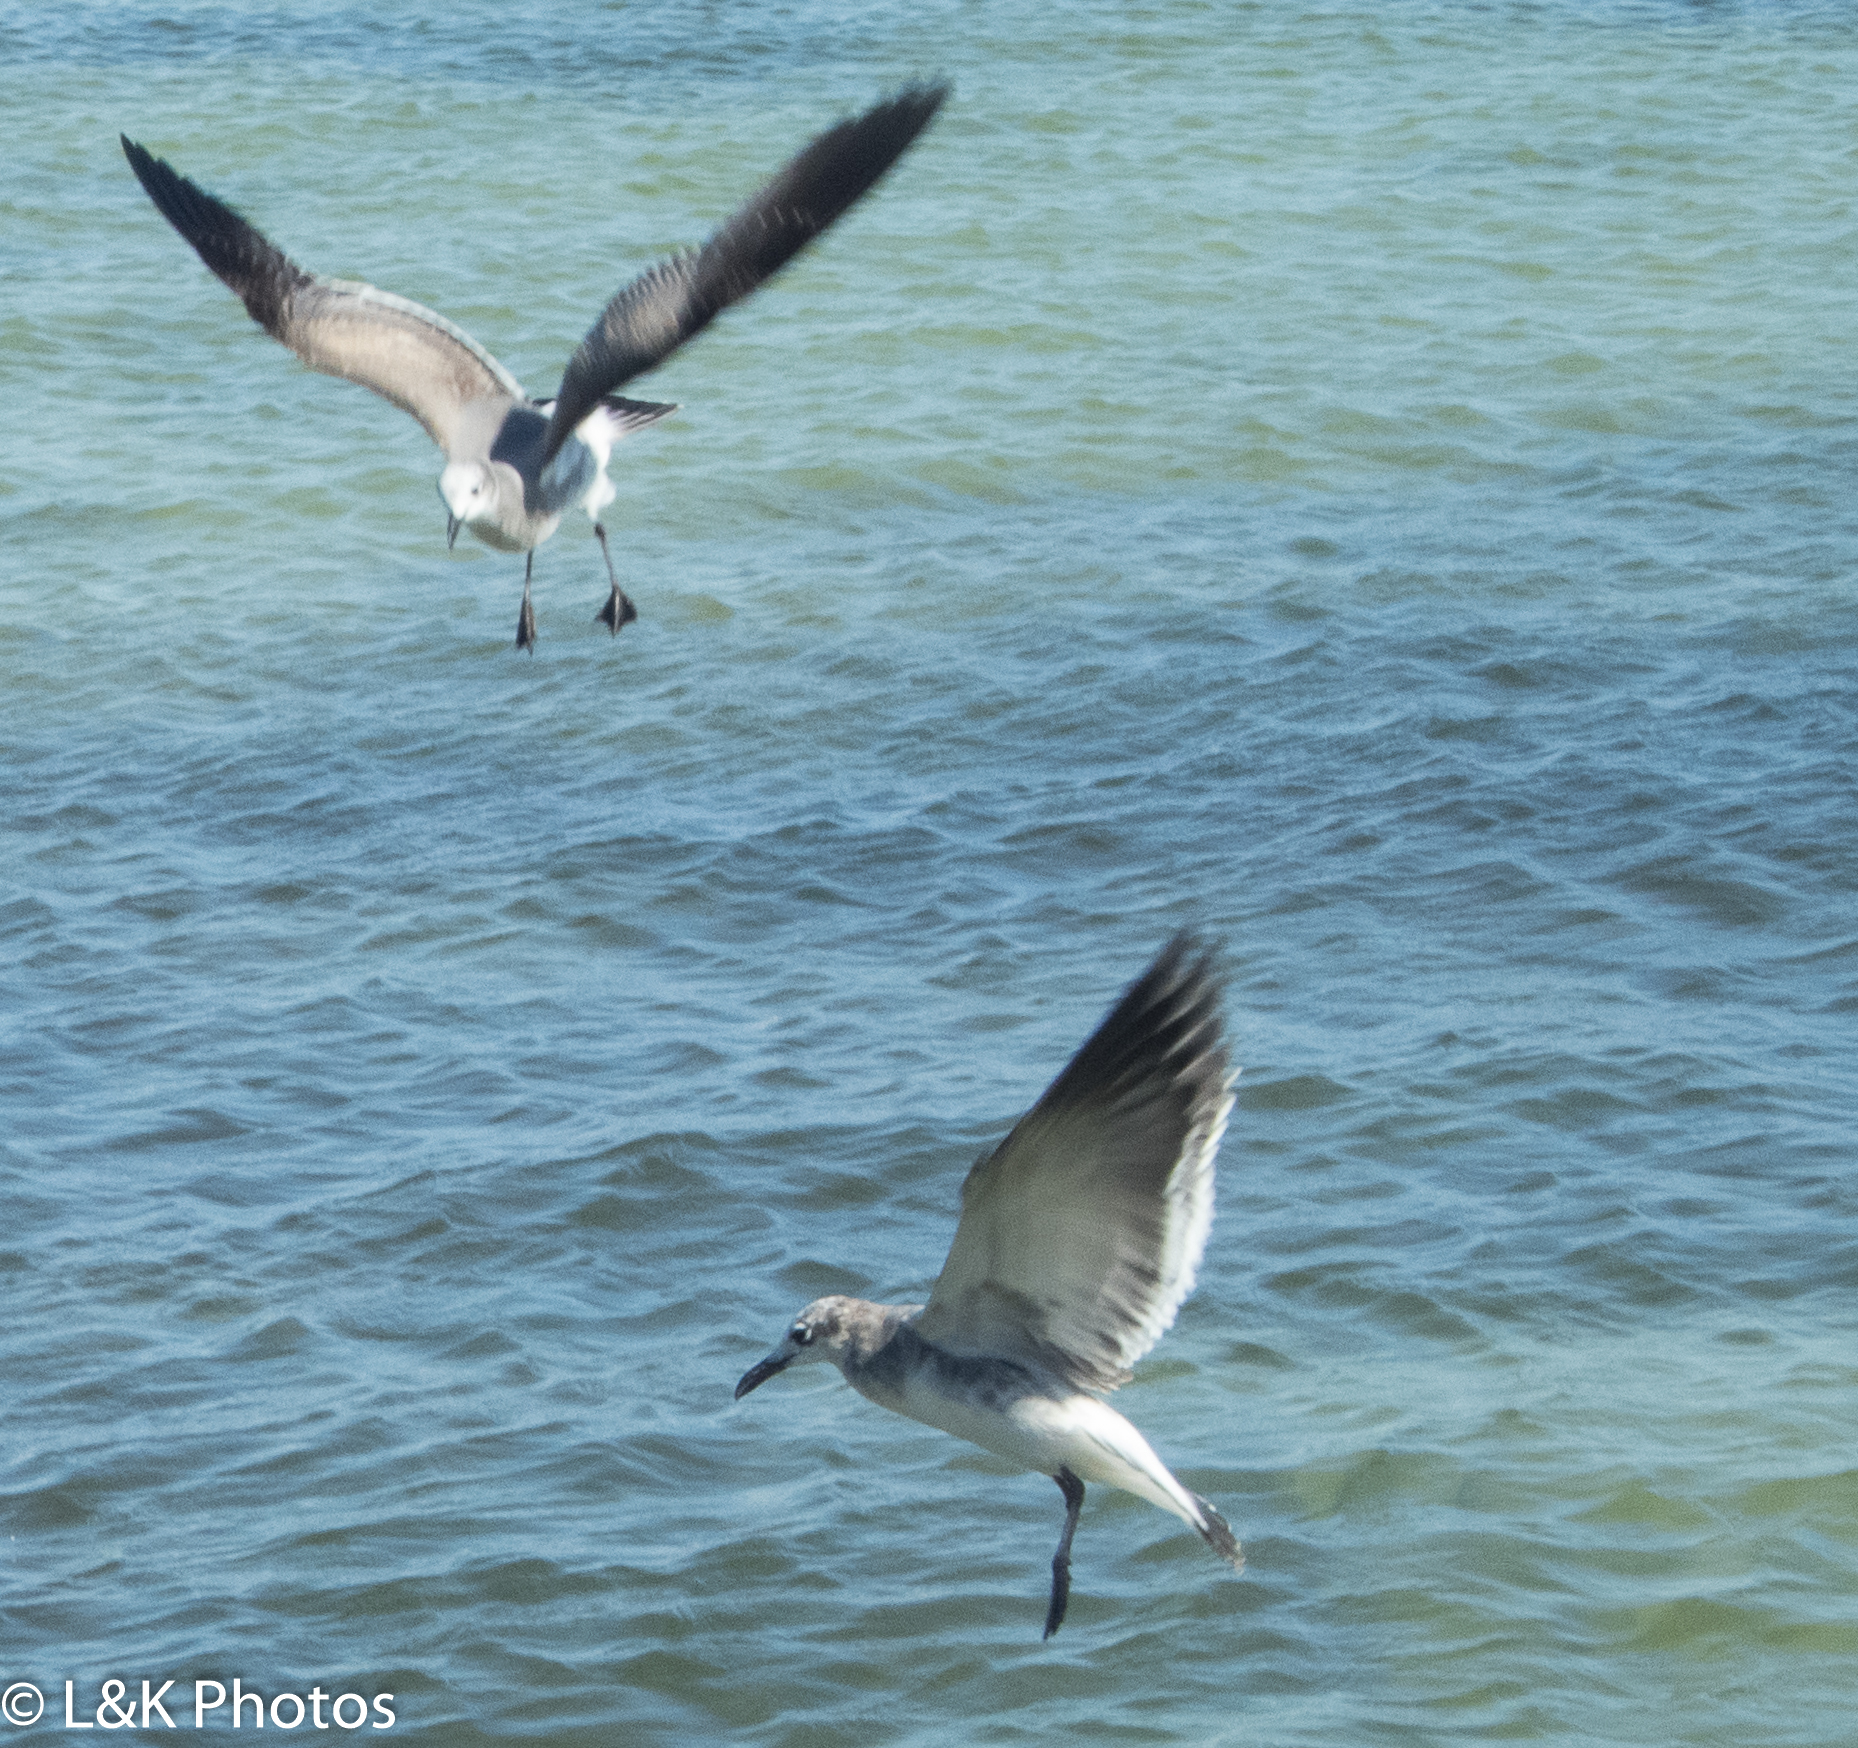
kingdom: Animalia
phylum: Chordata
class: Aves
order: Charadriiformes
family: Laridae
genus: Leucophaeus
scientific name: Leucophaeus atricilla
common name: Laughing gull
